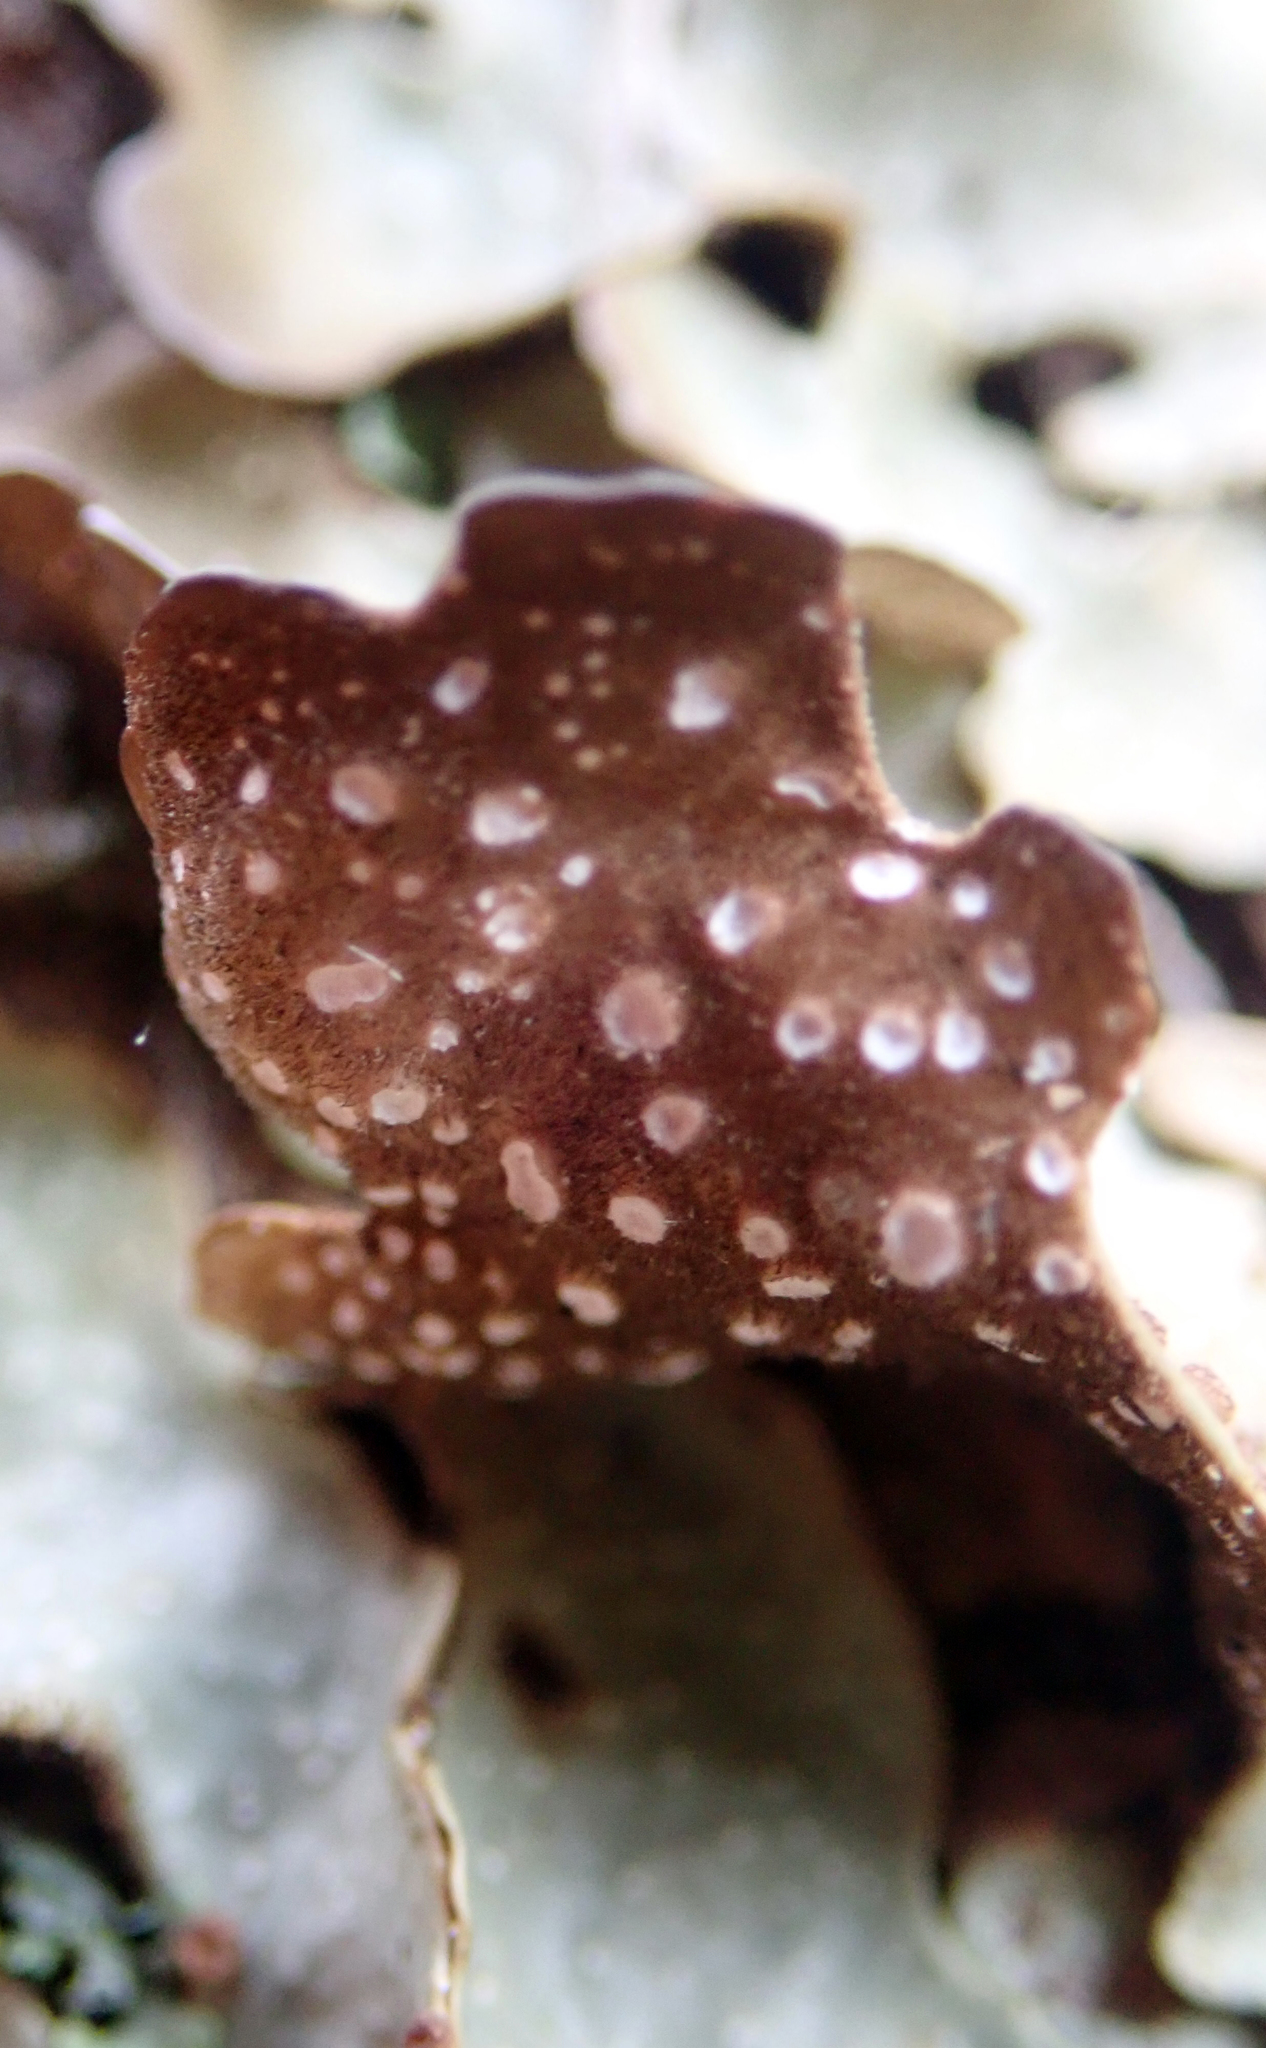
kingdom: Fungi
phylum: Ascomycota
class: Lecanoromycetes
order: Peltigerales
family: Lobariaceae
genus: Pseudocyphellaria
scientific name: Pseudocyphellaria lividofusca
